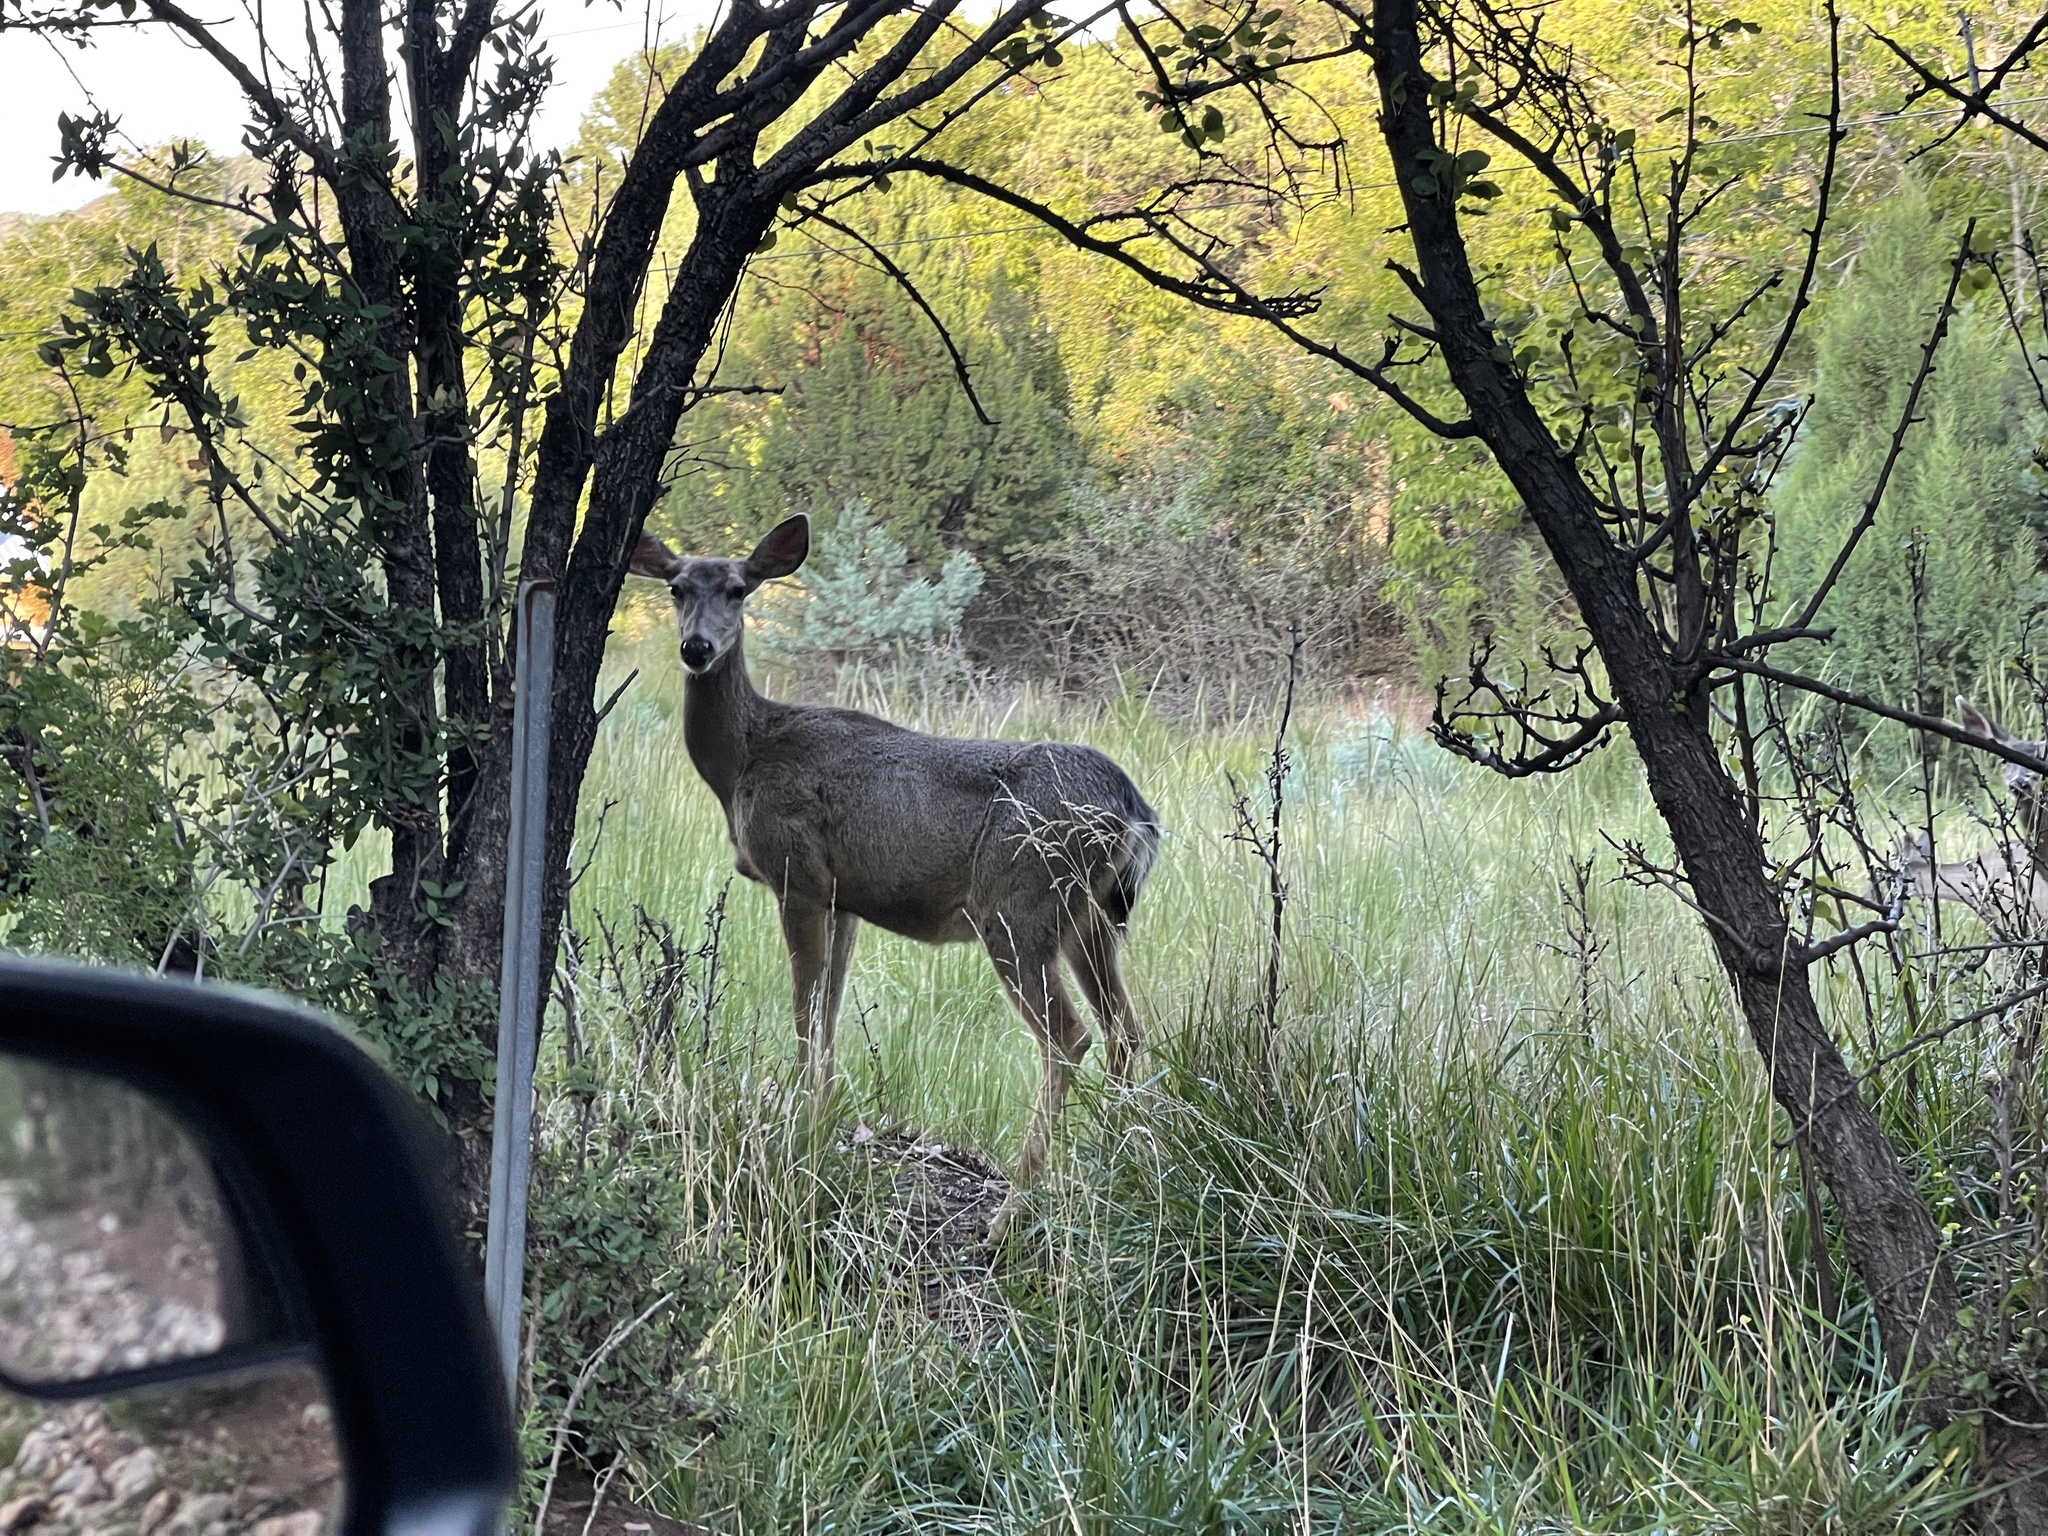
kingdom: Animalia
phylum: Chordata
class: Mammalia
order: Artiodactyla
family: Cervidae
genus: Odocoileus
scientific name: Odocoileus hemionus
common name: Mule deer
